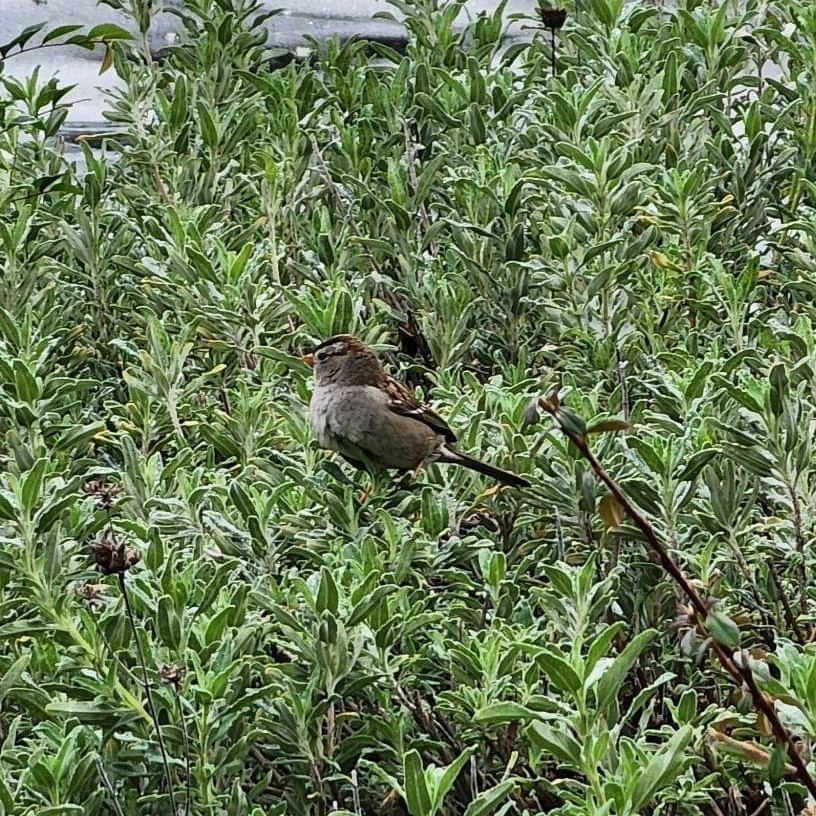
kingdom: Animalia
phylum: Chordata
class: Aves
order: Passeriformes
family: Passerellidae
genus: Zonotrichia
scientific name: Zonotrichia leucophrys
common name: White-crowned sparrow
